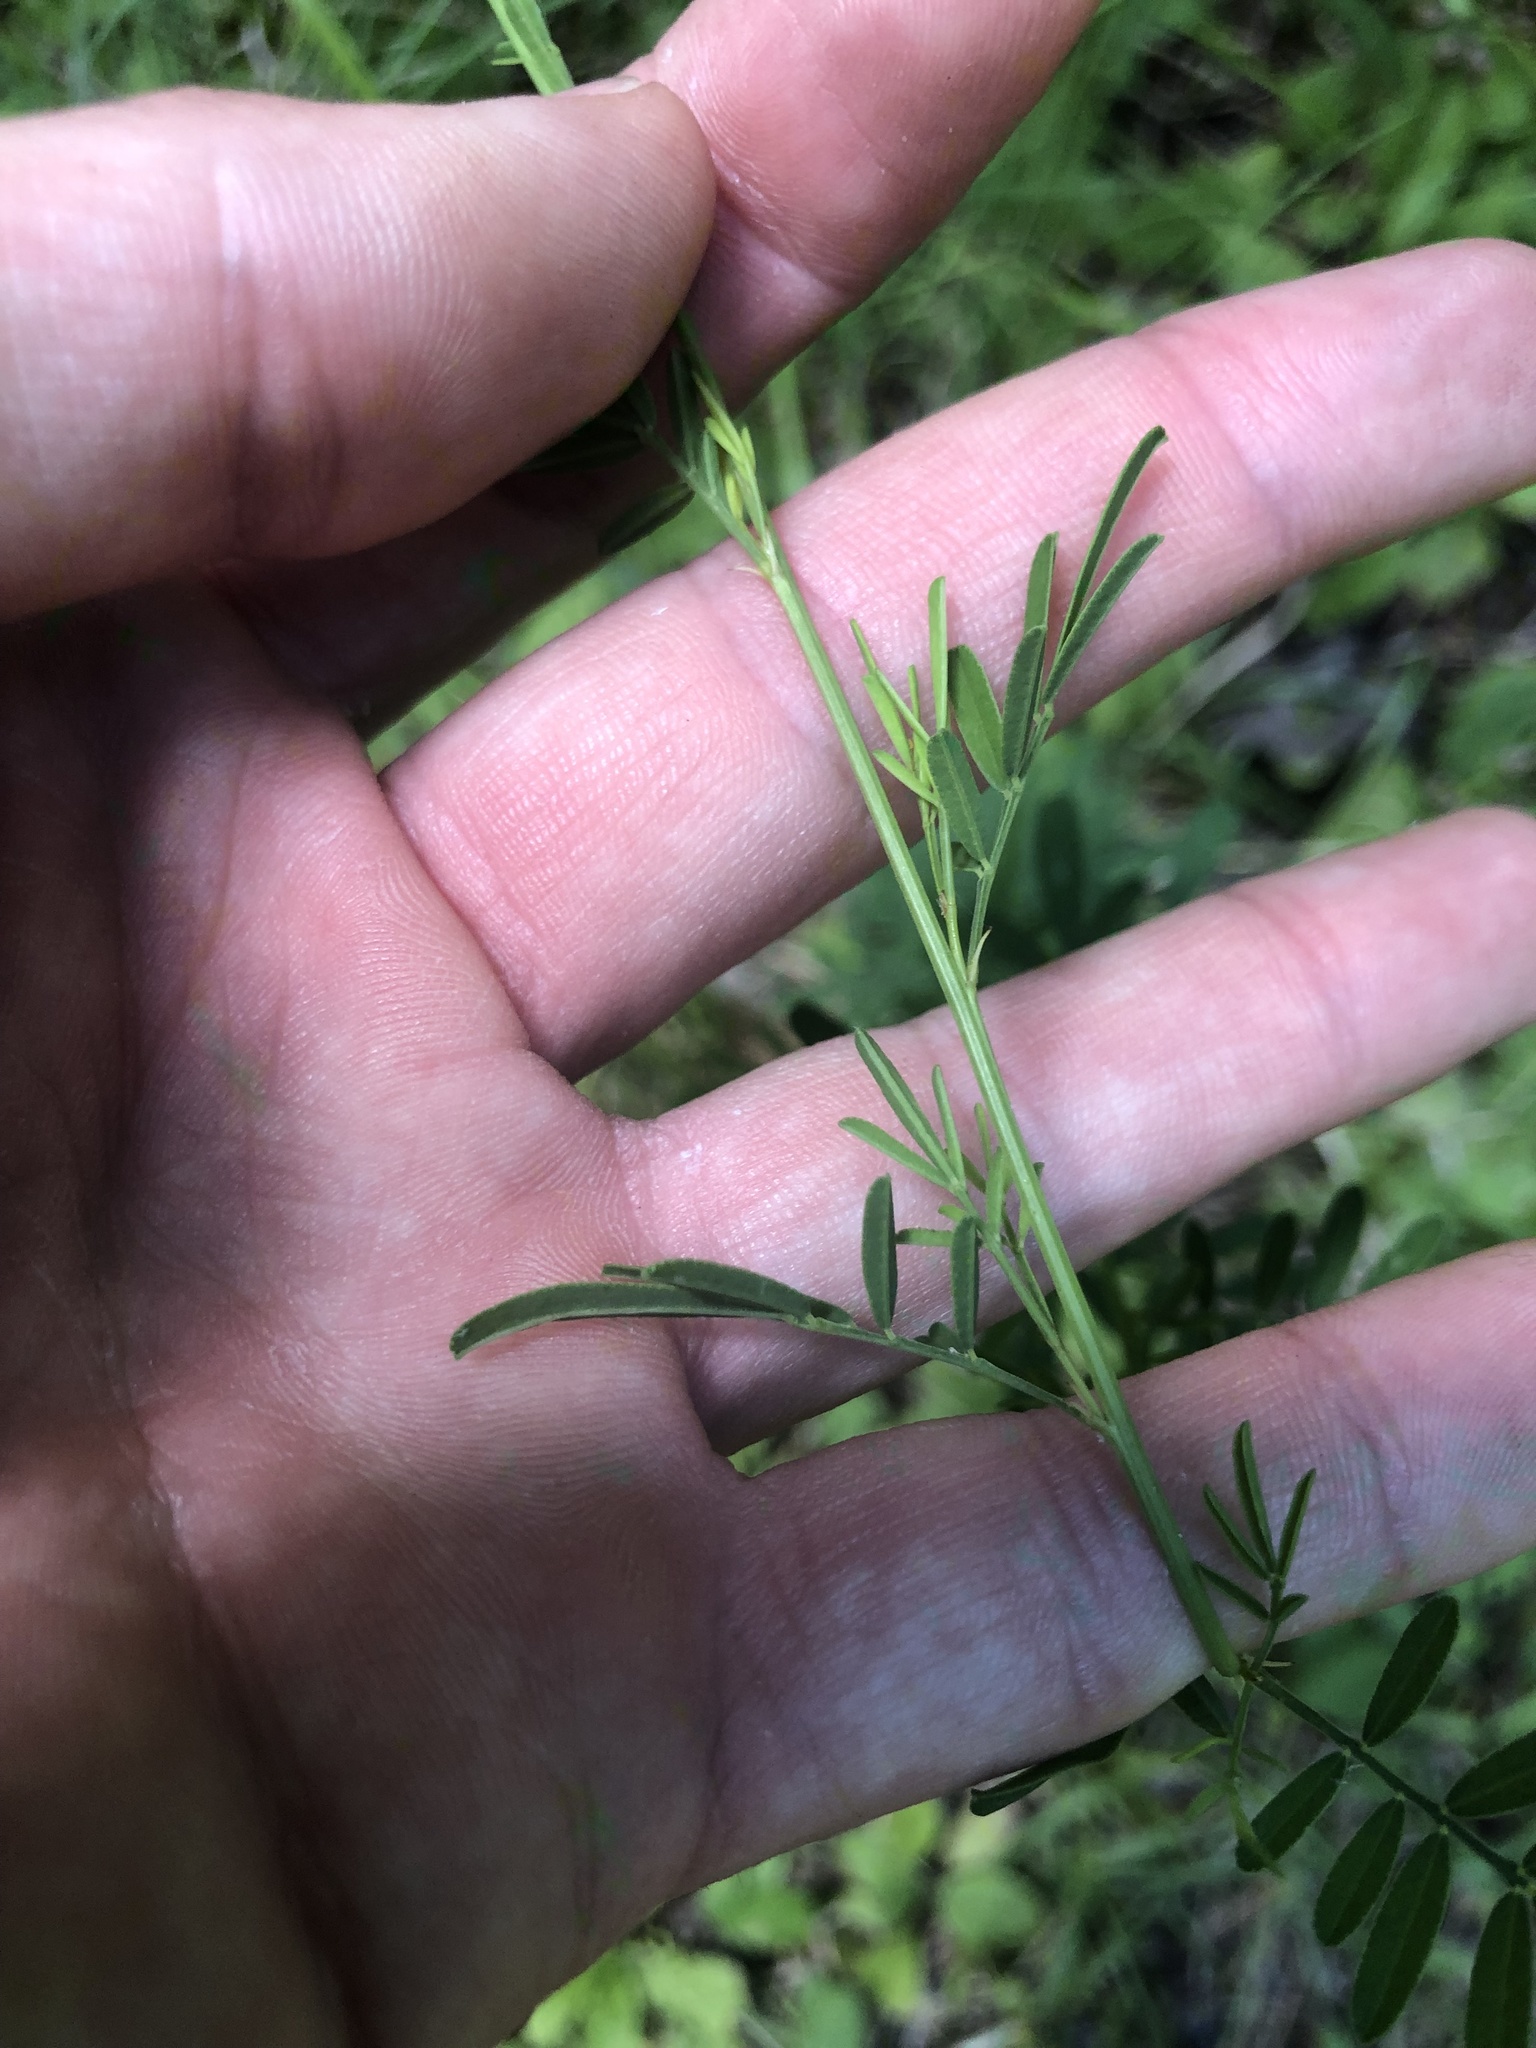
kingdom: Plantae
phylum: Tracheophyta
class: Magnoliopsida
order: Fabales
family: Fabaceae
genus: Dalea
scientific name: Dalea candida
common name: White prairie-clover
